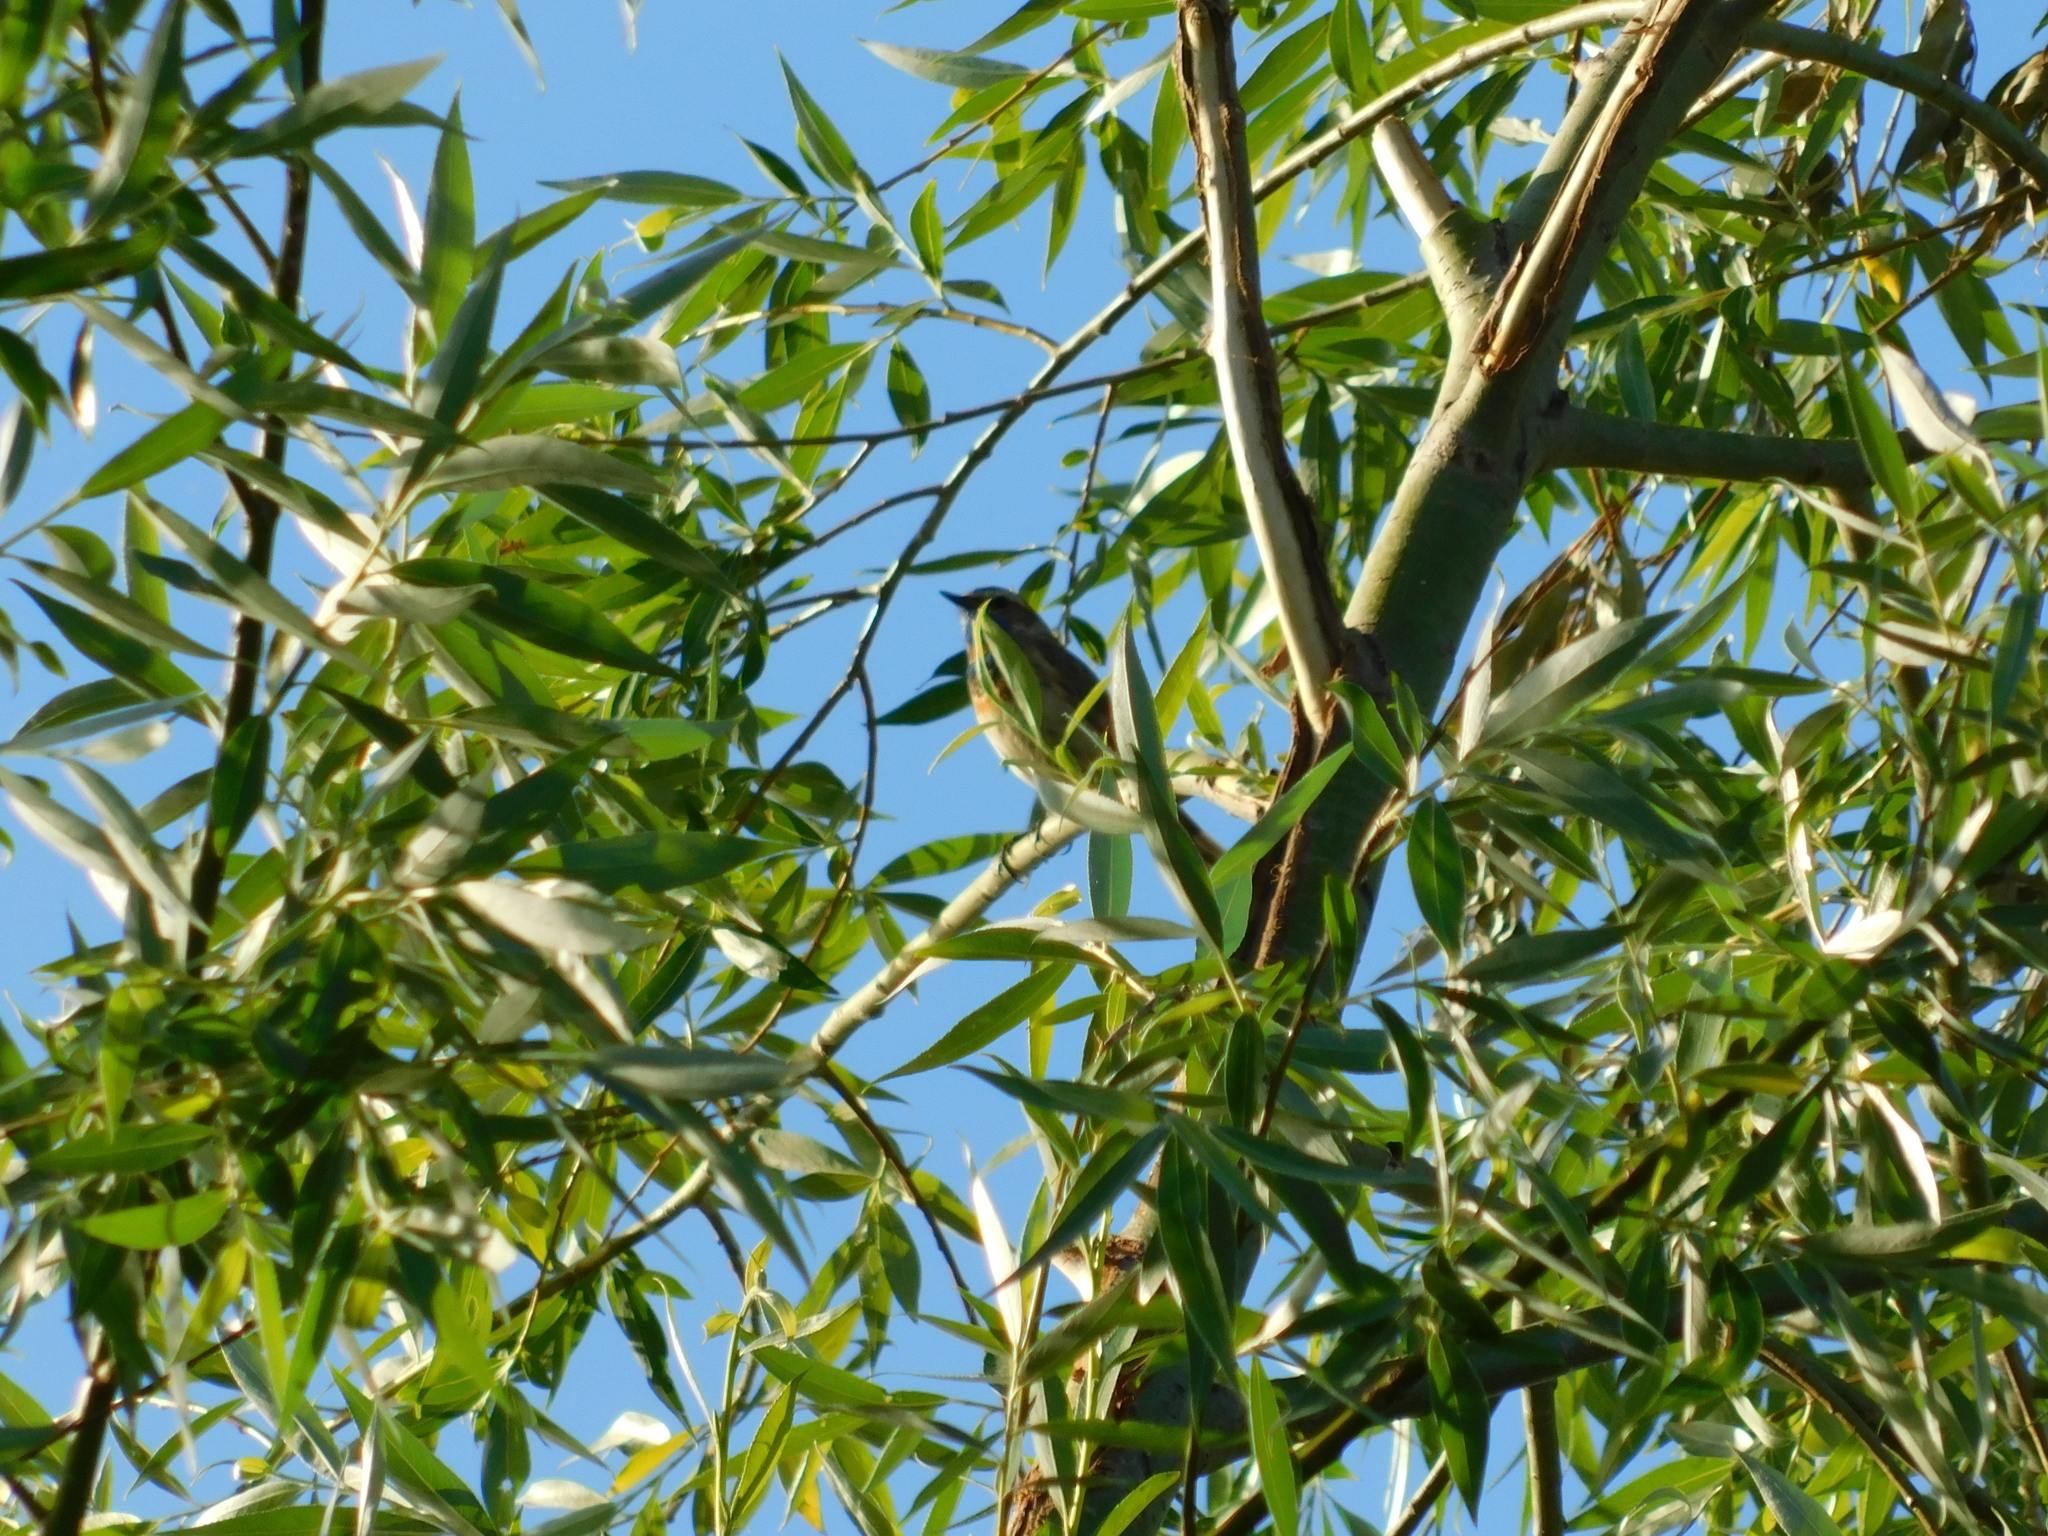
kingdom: Animalia
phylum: Chordata
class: Aves
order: Passeriformes
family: Muscicapidae
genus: Luscinia
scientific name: Luscinia svecica
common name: Bluethroat
